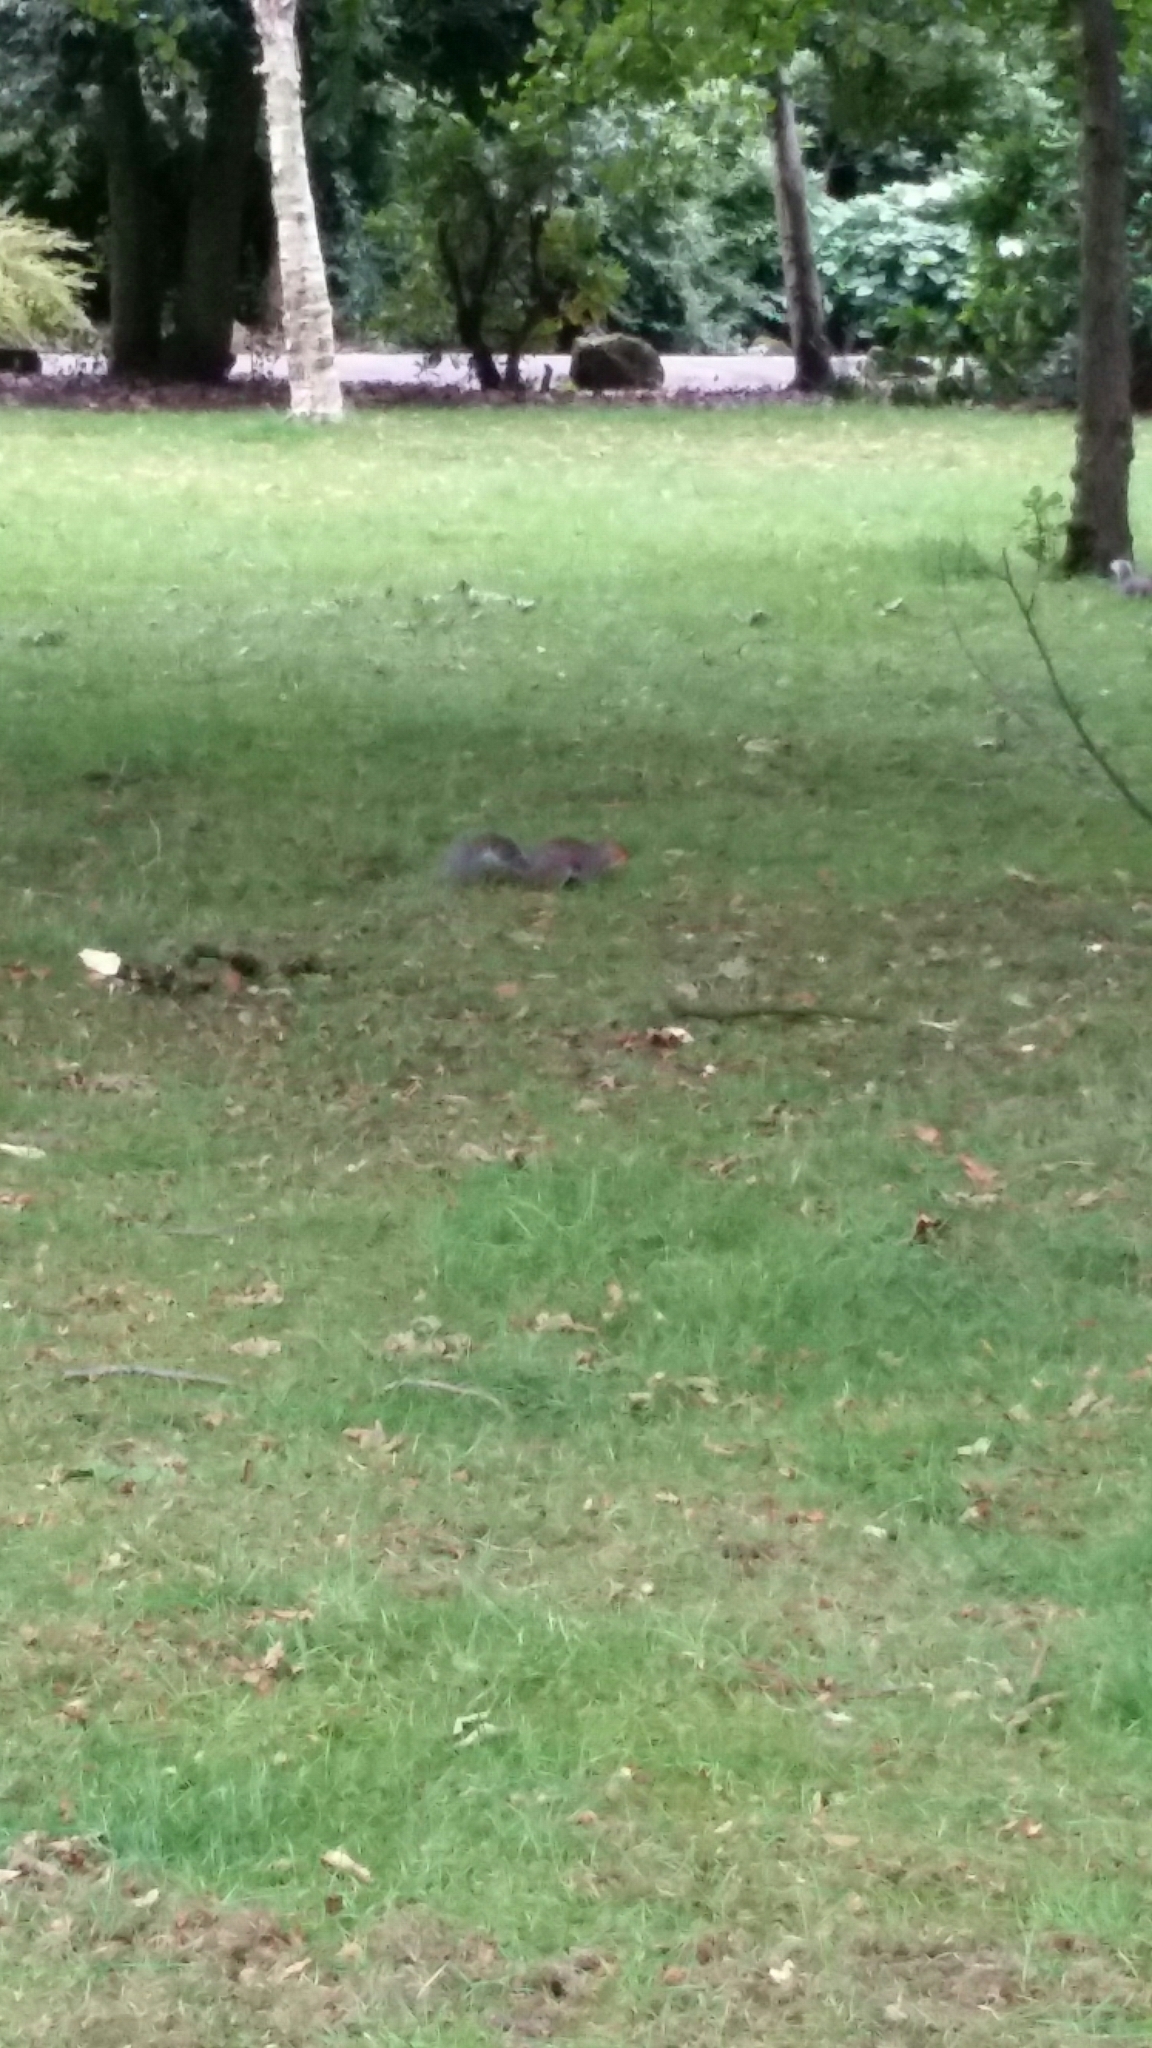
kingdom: Animalia
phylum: Chordata
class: Mammalia
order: Rodentia
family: Sciuridae
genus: Sciurus
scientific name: Sciurus carolinensis
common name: Eastern gray squirrel
